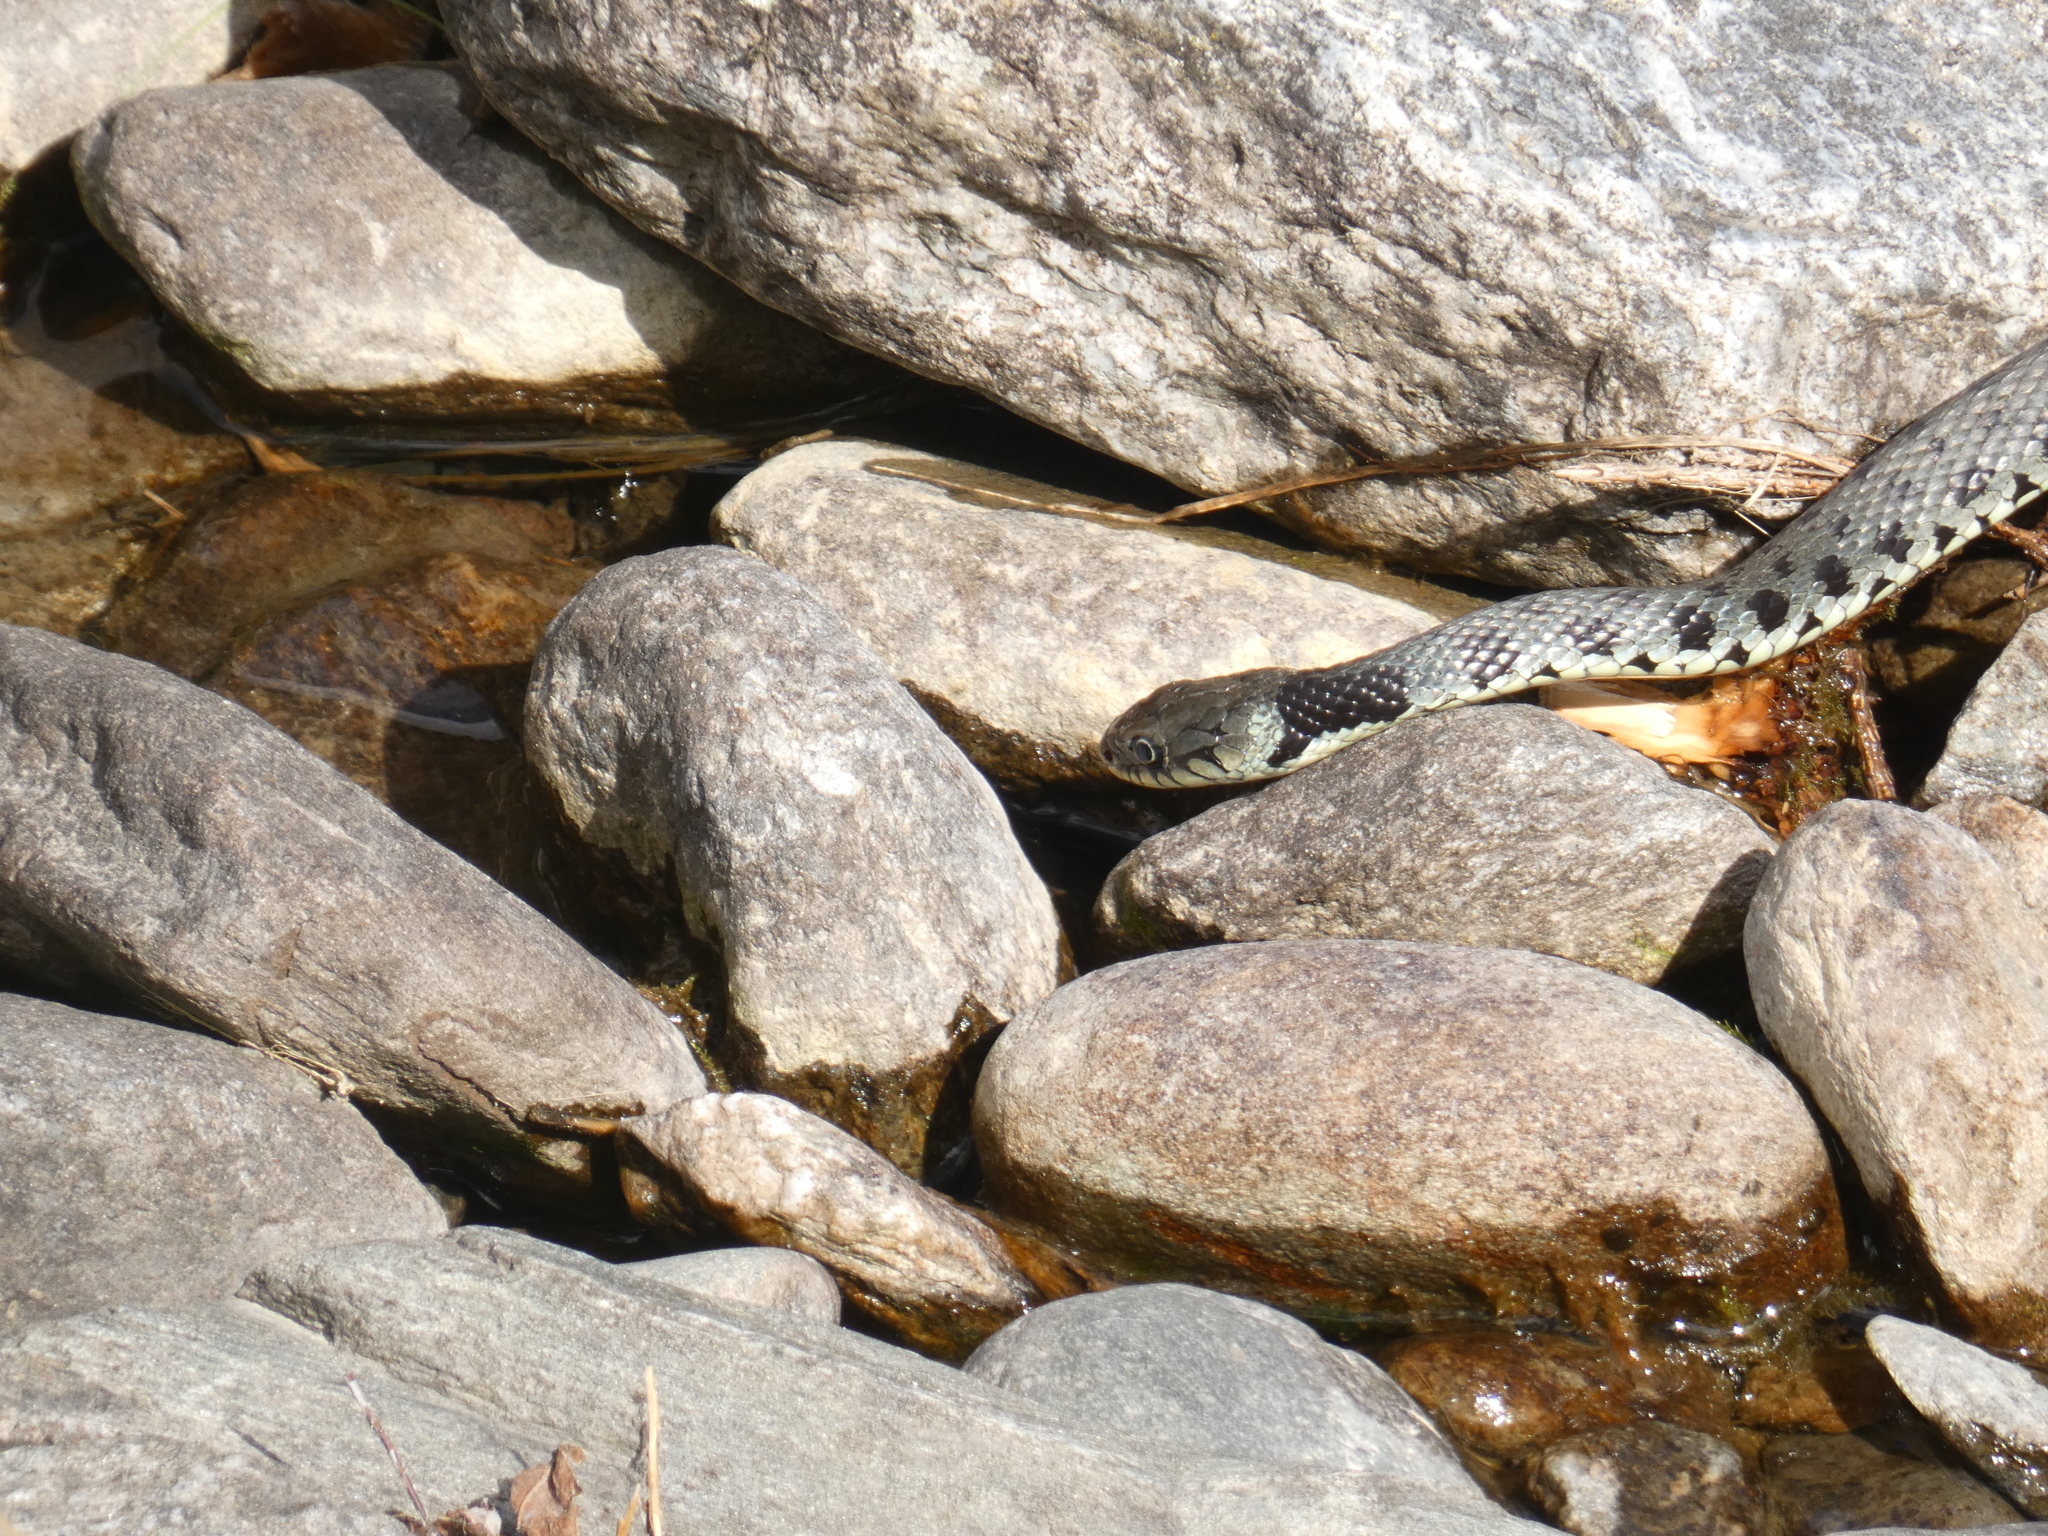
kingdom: Animalia
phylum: Chordata
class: Squamata
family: Colubridae
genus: Natrix
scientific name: Natrix helvetica
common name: Banded grass snake
